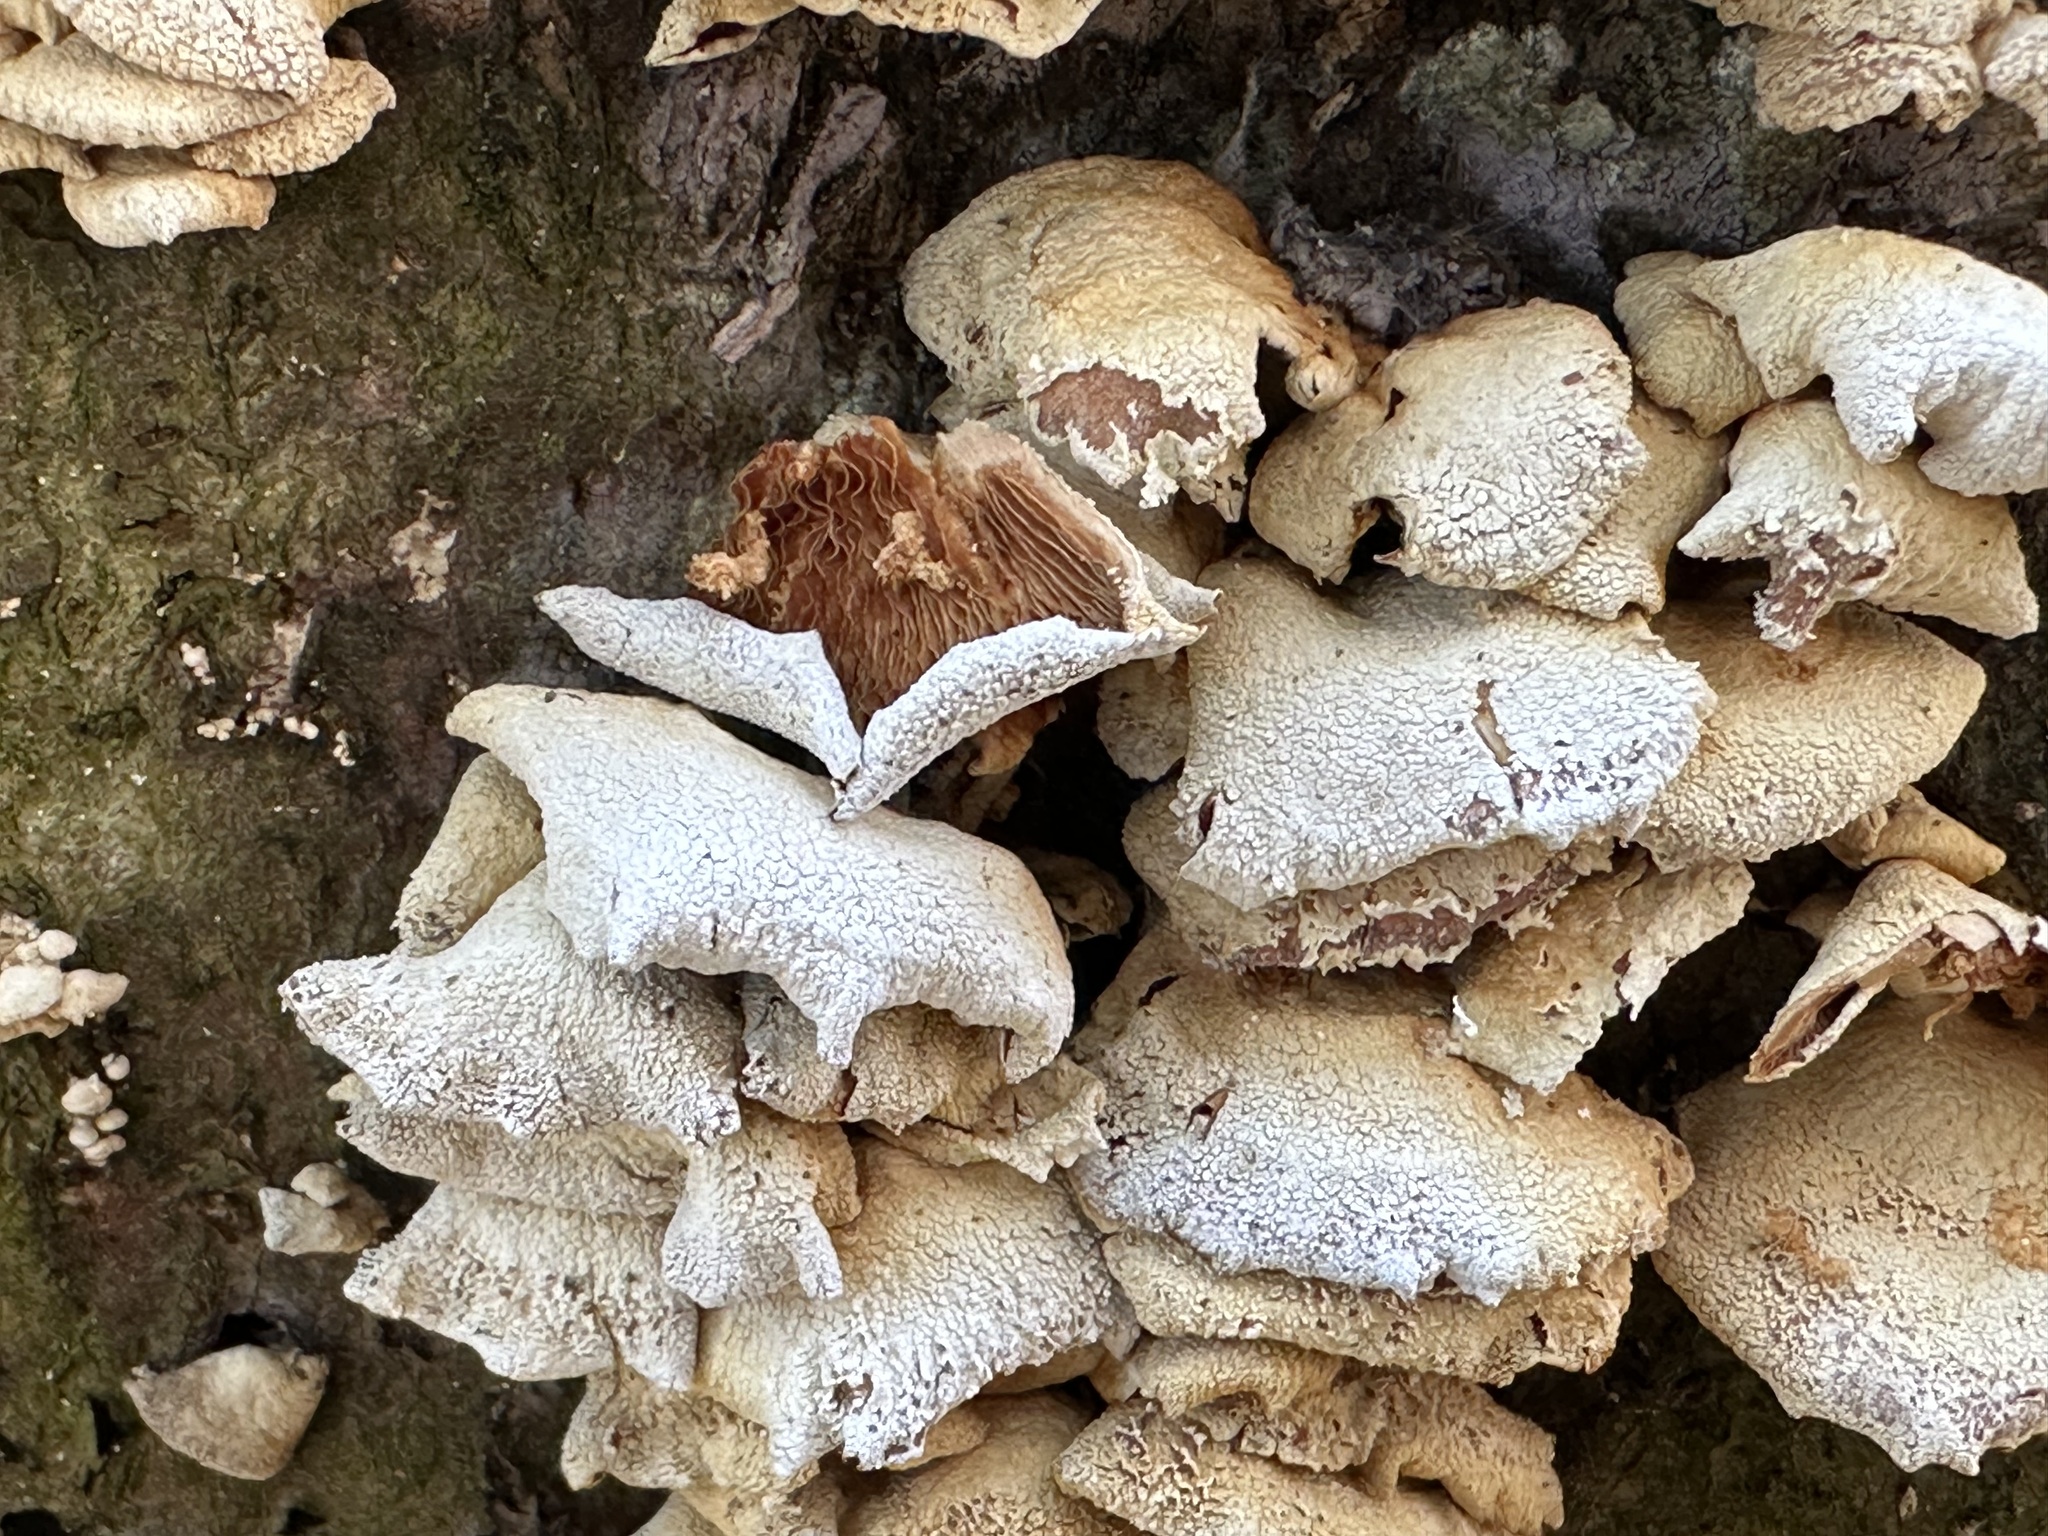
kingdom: Fungi
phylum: Basidiomycota
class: Agaricomycetes
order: Agaricales
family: Mycenaceae
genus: Panellus
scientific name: Panellus stipticus
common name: Bitter oysterling
